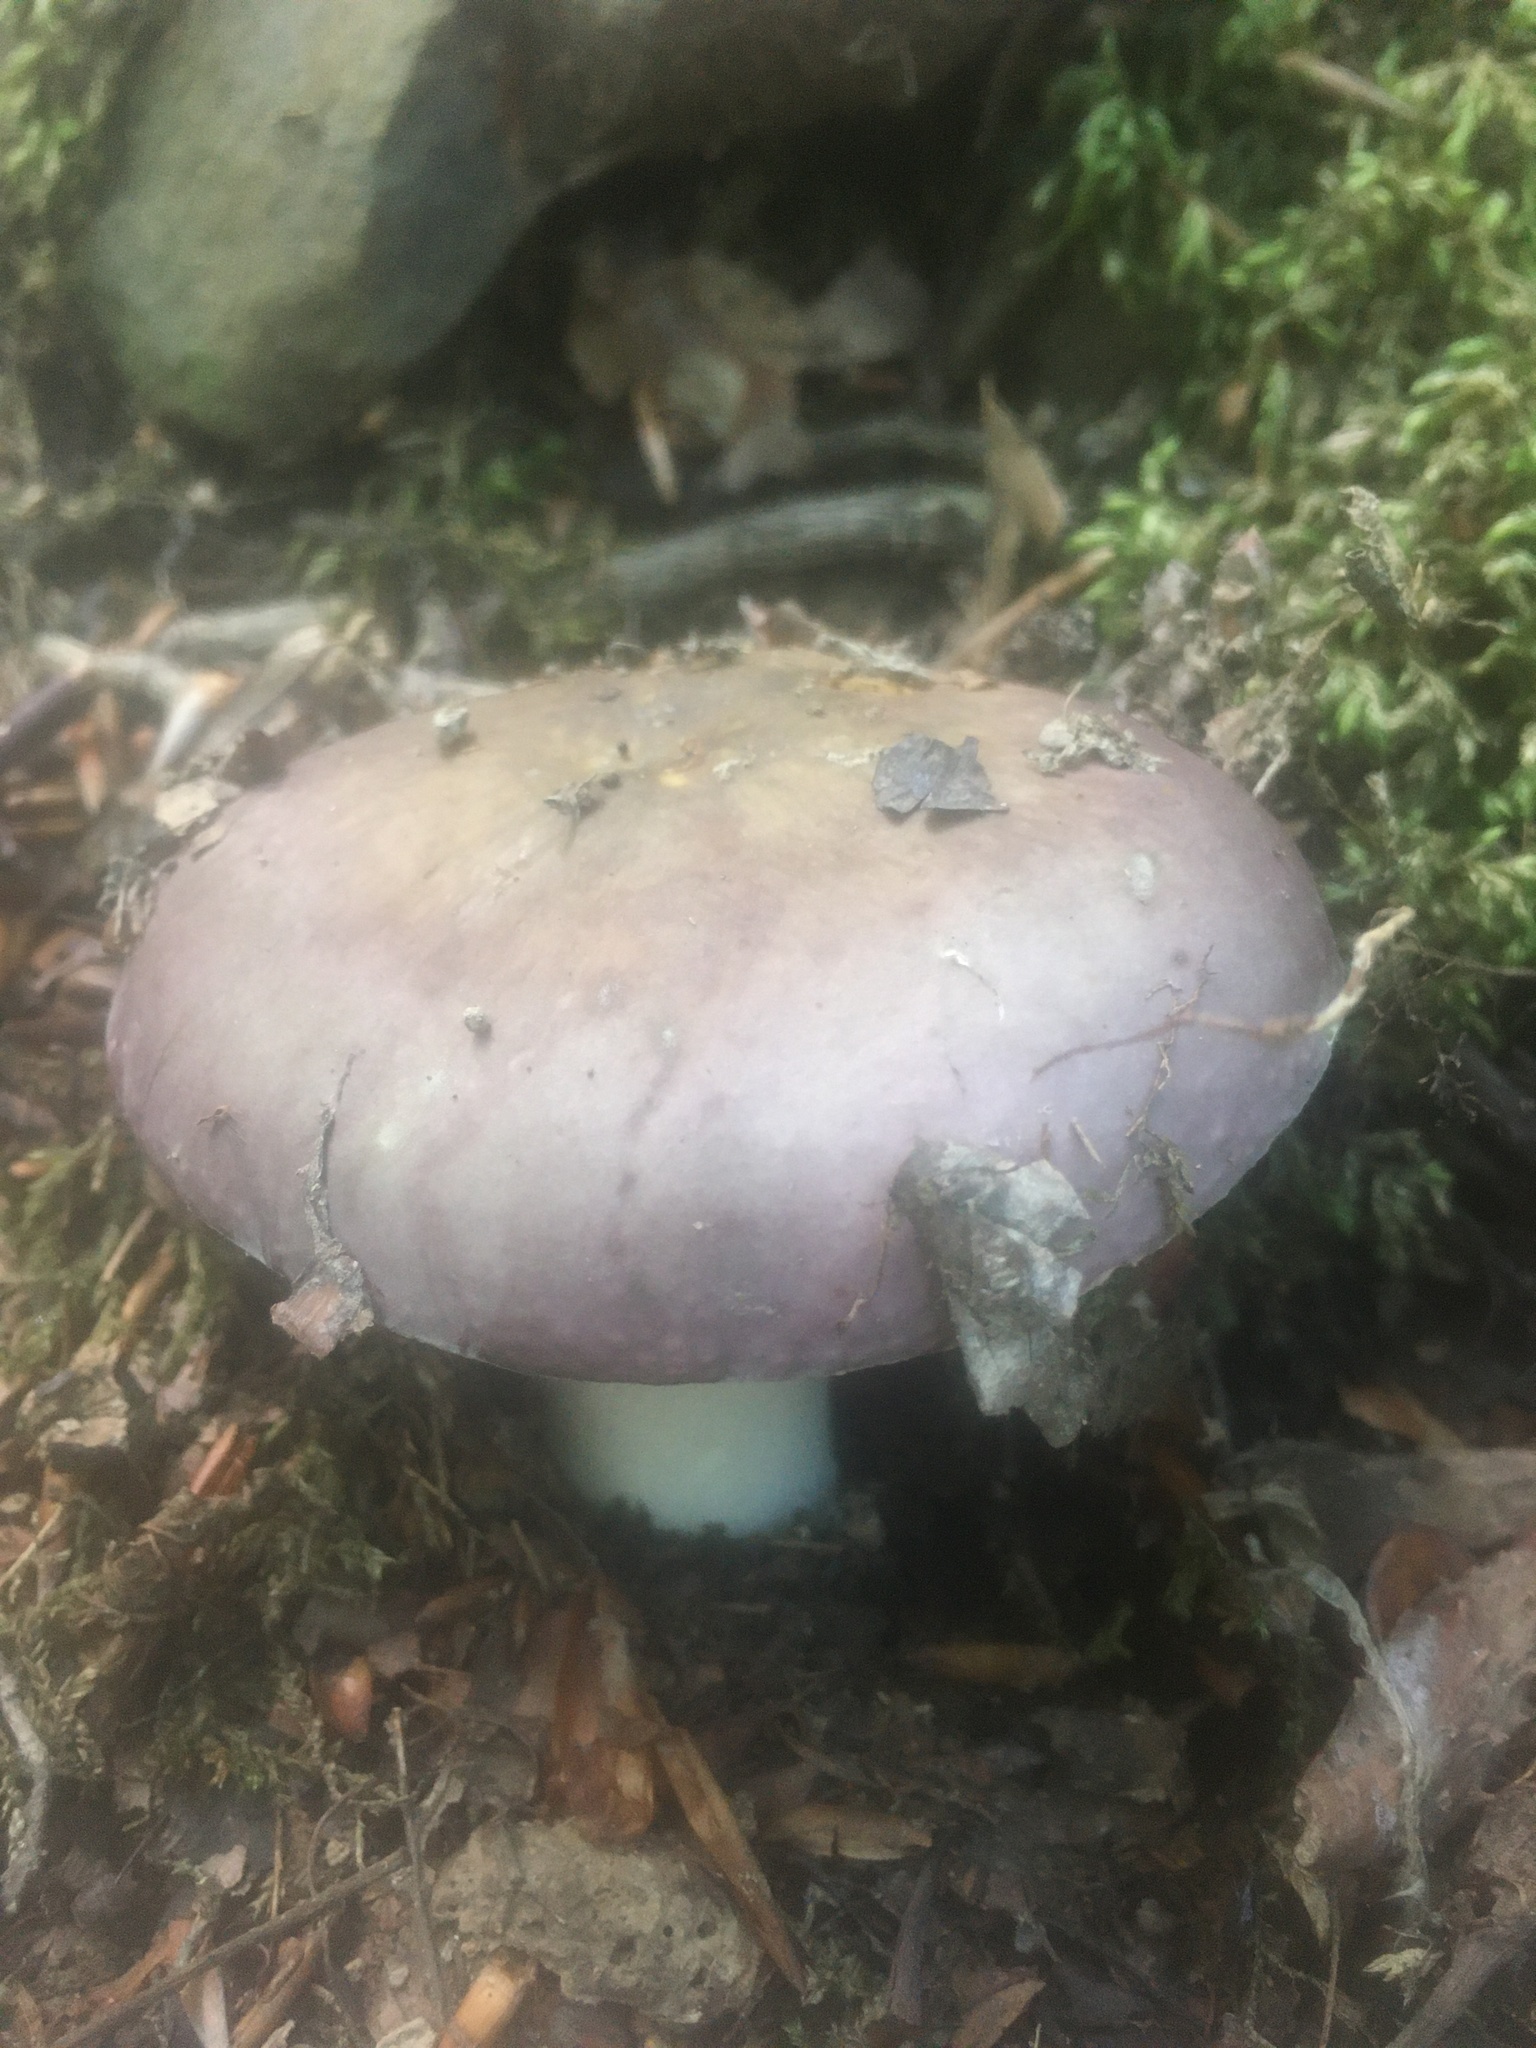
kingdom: Fungi
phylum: Basidiomycota
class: Agaricomycetes
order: Russulales
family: Russulaceae
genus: Russula
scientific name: Russula
